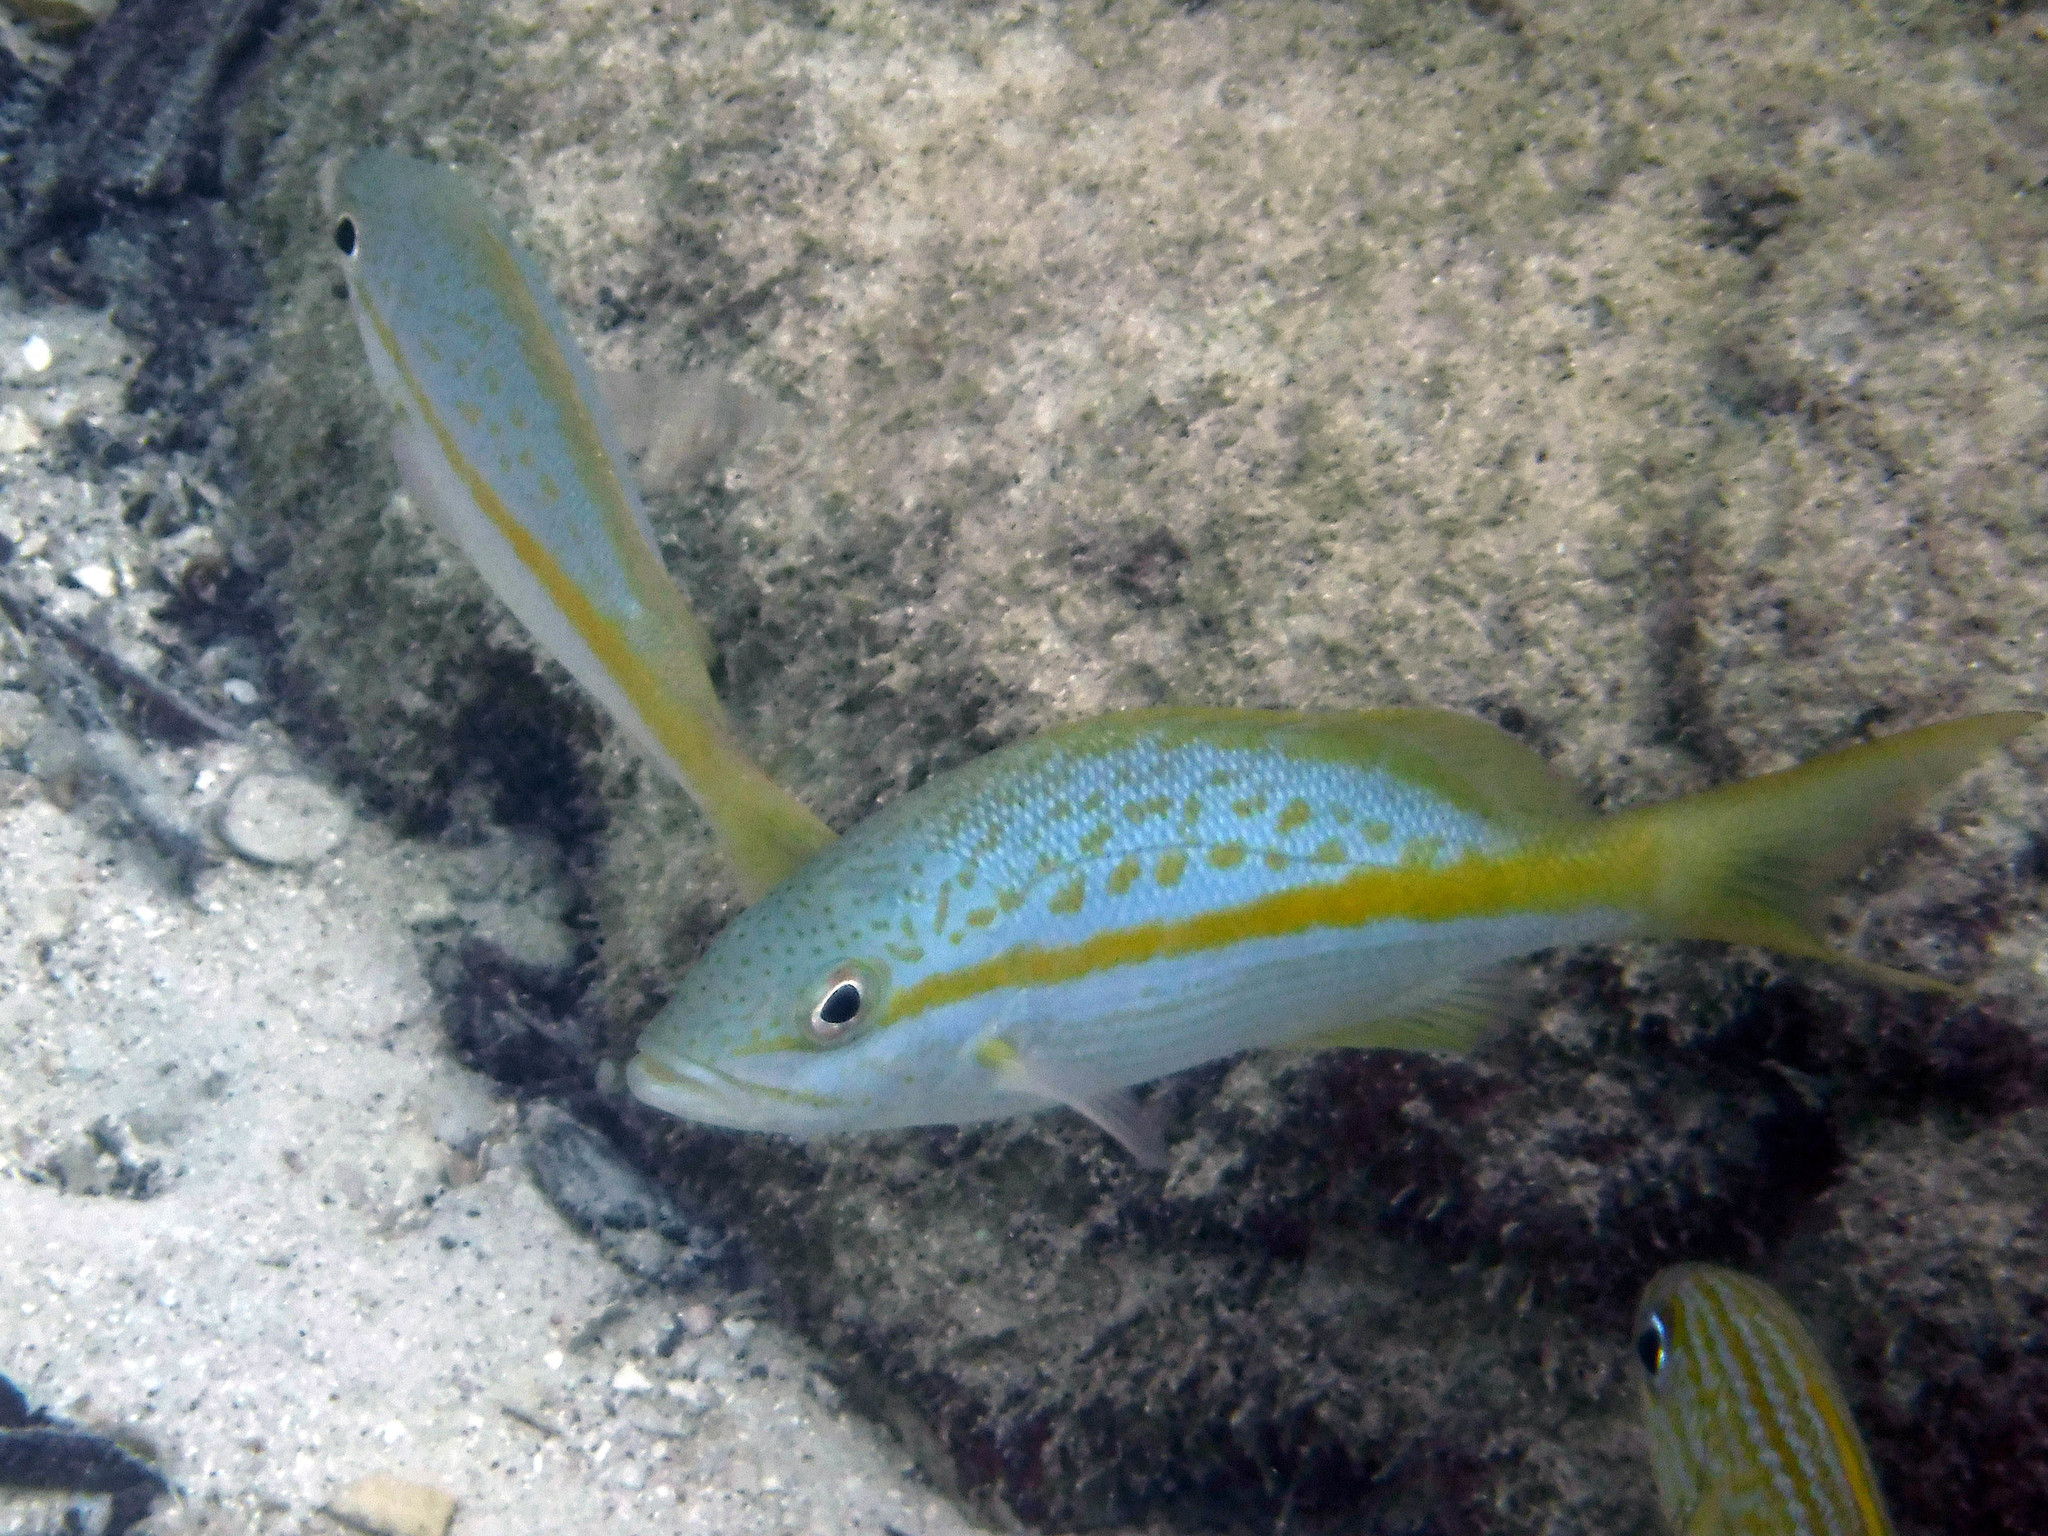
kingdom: Animalia
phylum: Chordata
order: Perciformes
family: Lutjanidae
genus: Ocyurus
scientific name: Ocyurus chrysurus
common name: Yellowtail snapper
